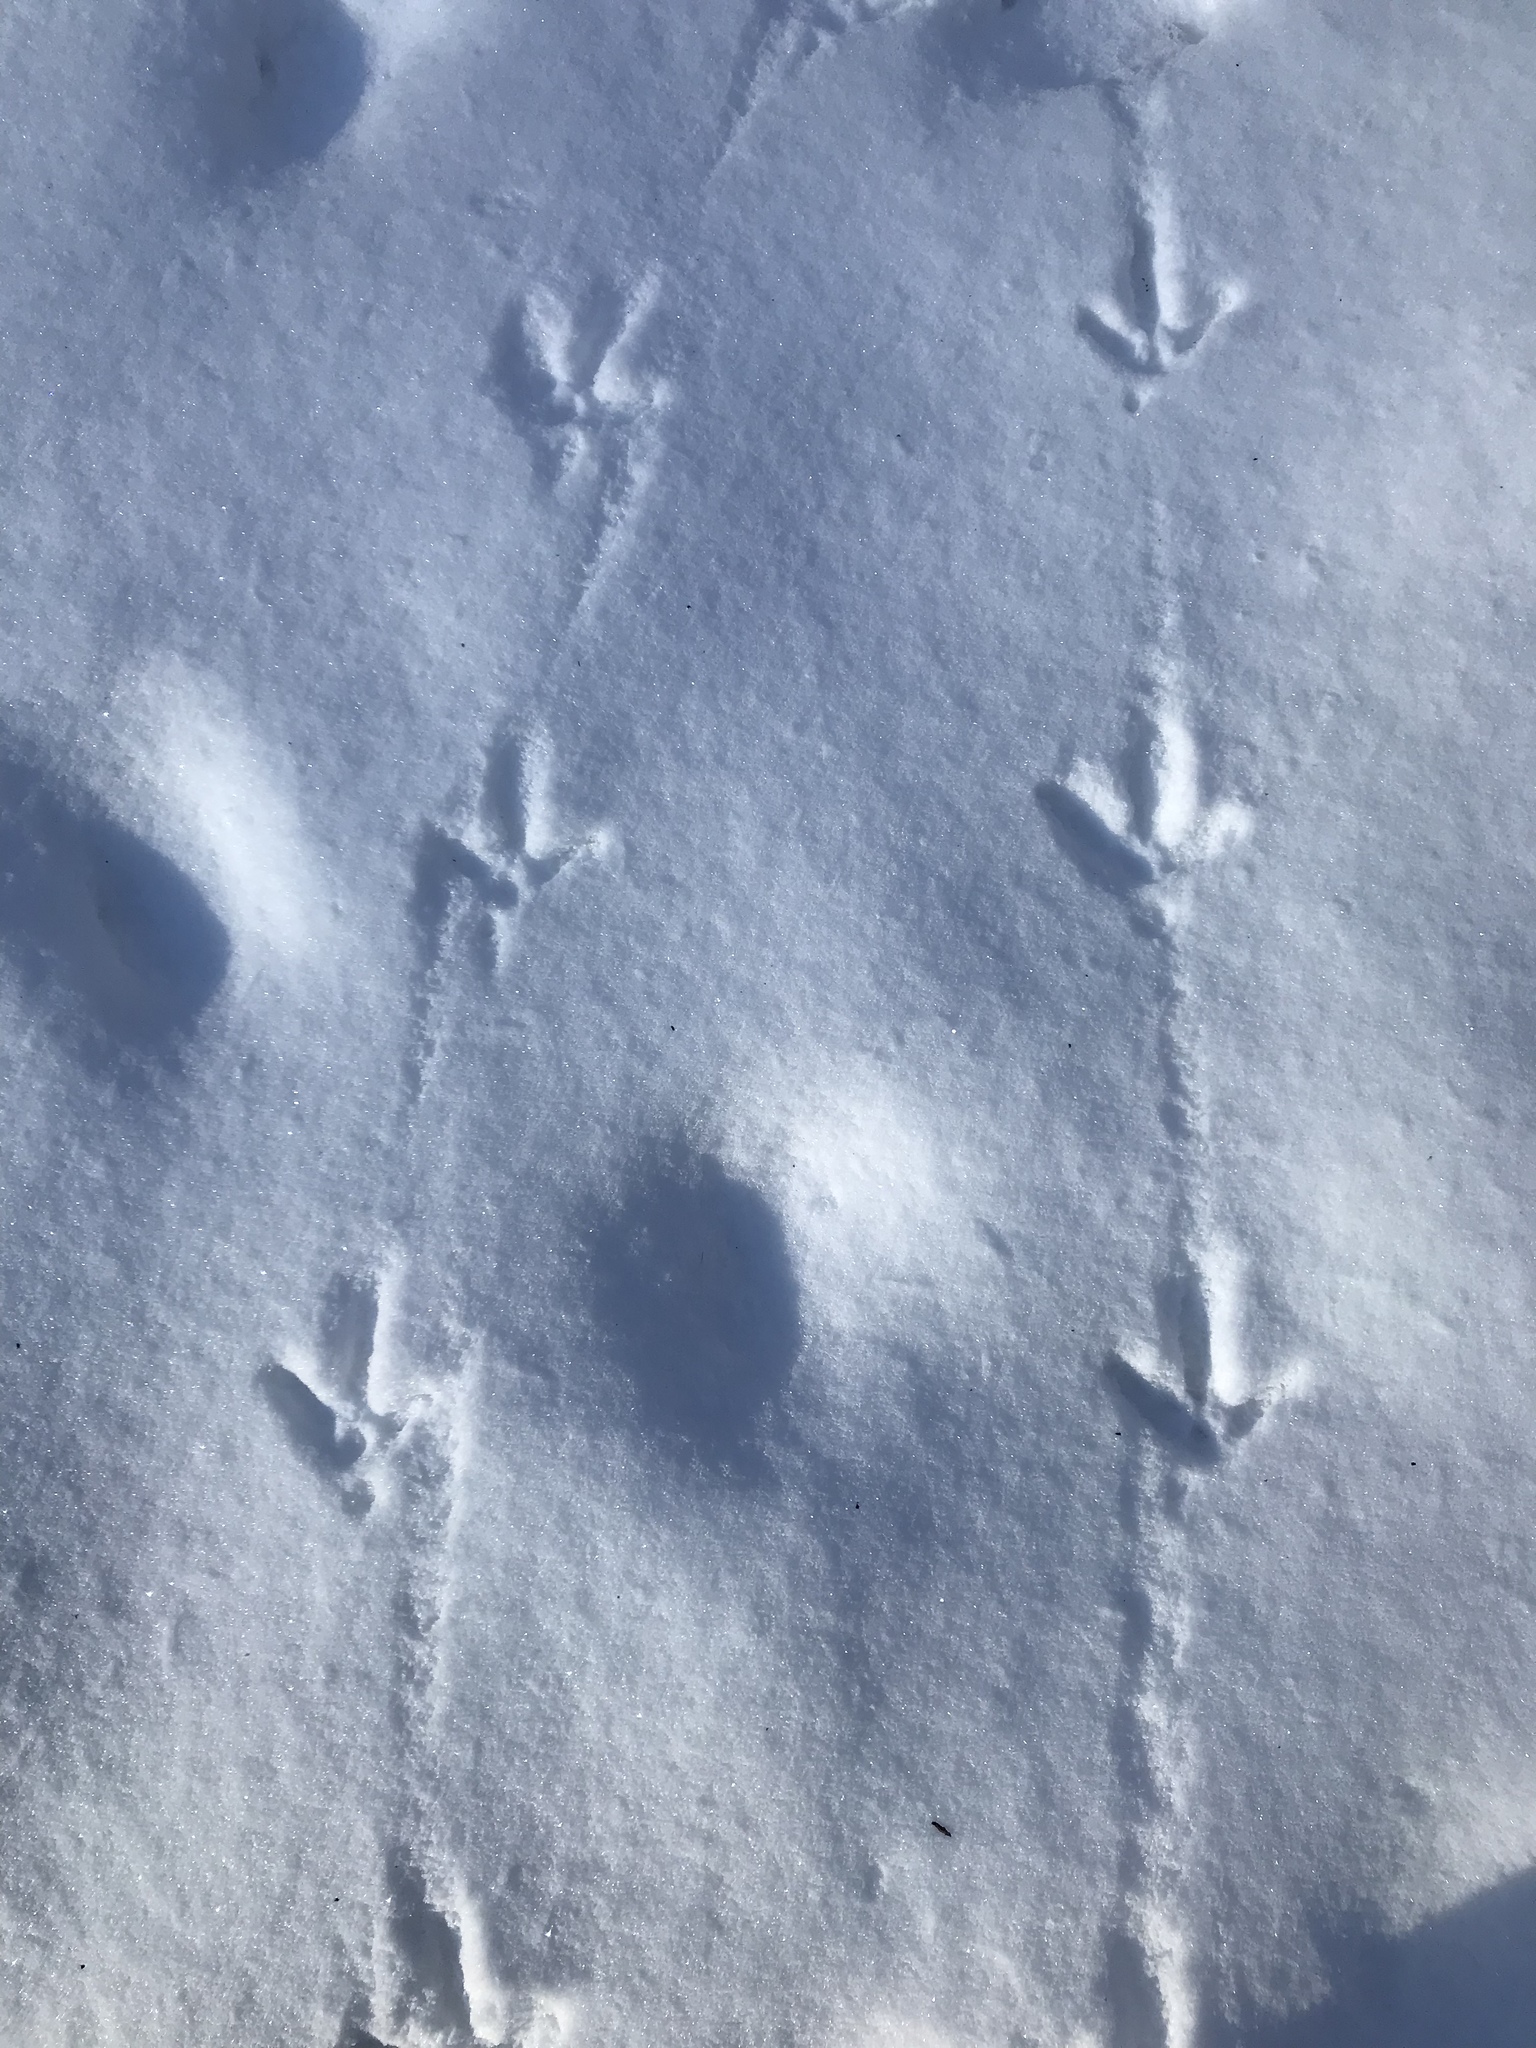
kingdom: Animalia
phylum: Chordata
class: Aves
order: Galliformes
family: Phasianidae
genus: Meleagris
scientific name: Meleagris gallopavo
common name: Wild turkey
